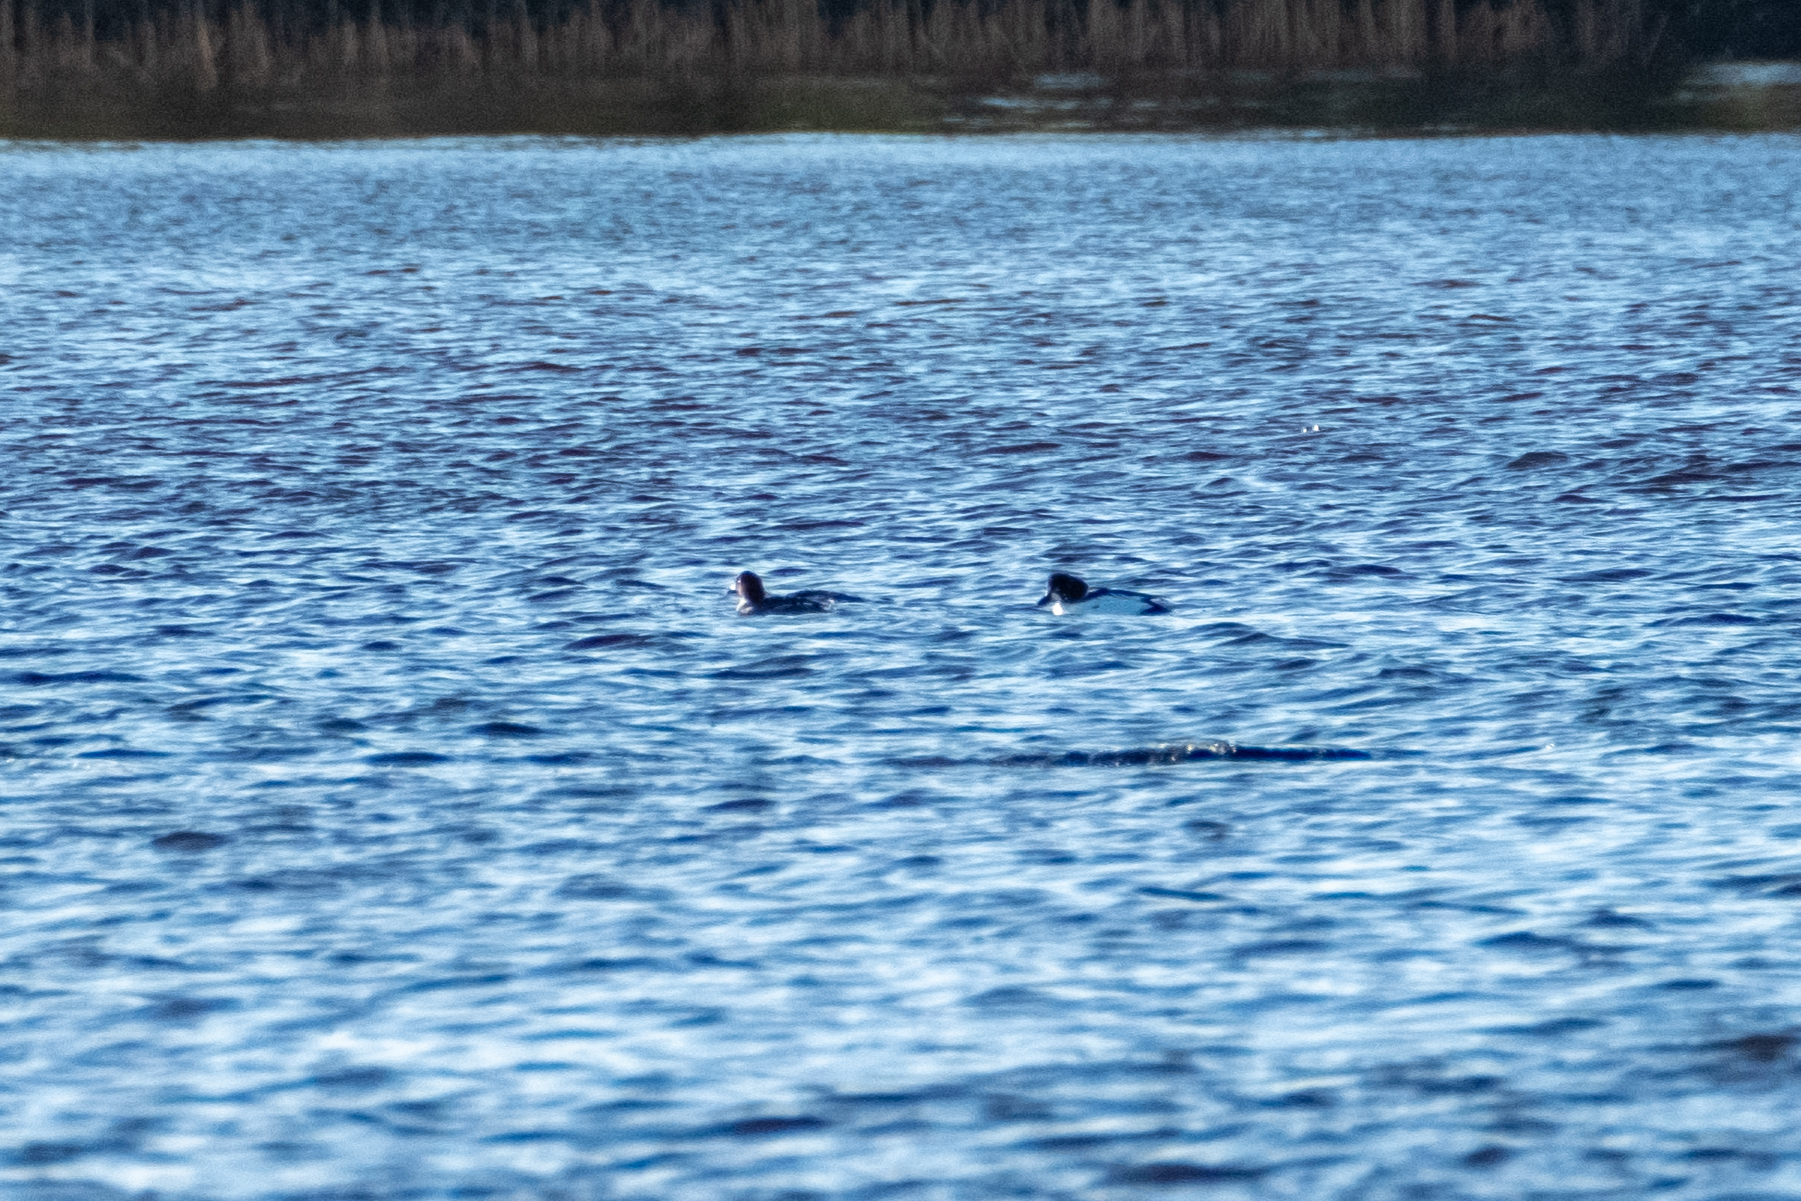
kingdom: Animalia
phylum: Chordata
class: Aves
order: Anseriformes
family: Anatidae
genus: Bucephala
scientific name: Bucephala clangula
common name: Common goldeneye
